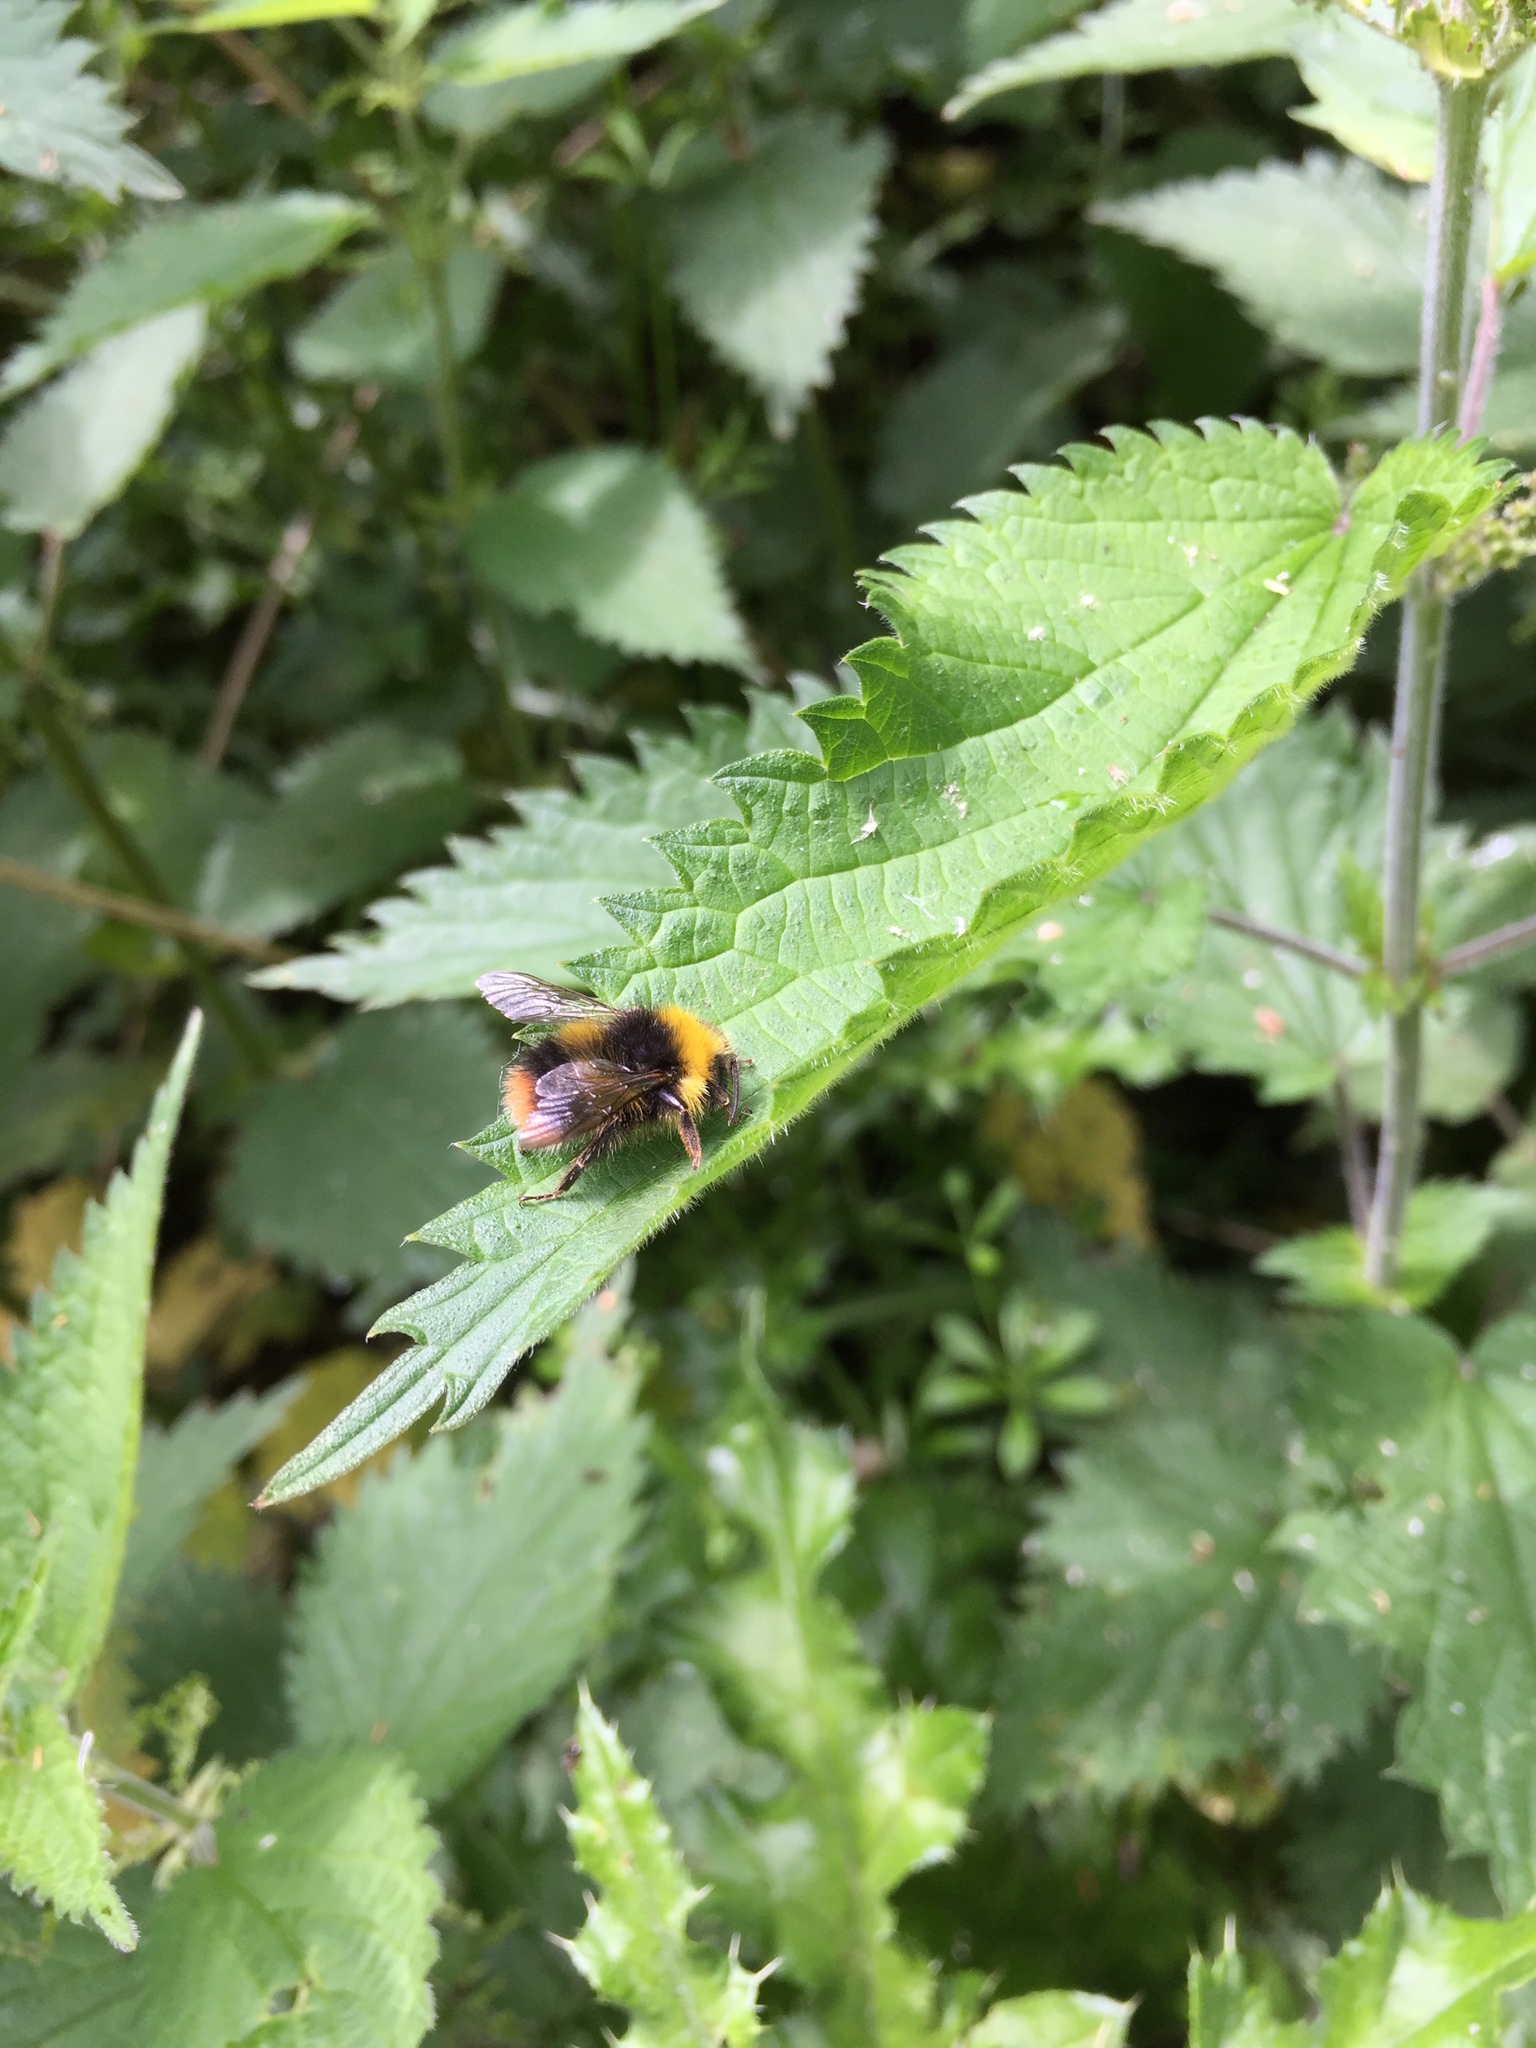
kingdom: Animalia
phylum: Arthropoda
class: Insecta
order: Hymenoptera
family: Apidae
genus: Bombus
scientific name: Bombus pratorum
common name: Early humble-bee
